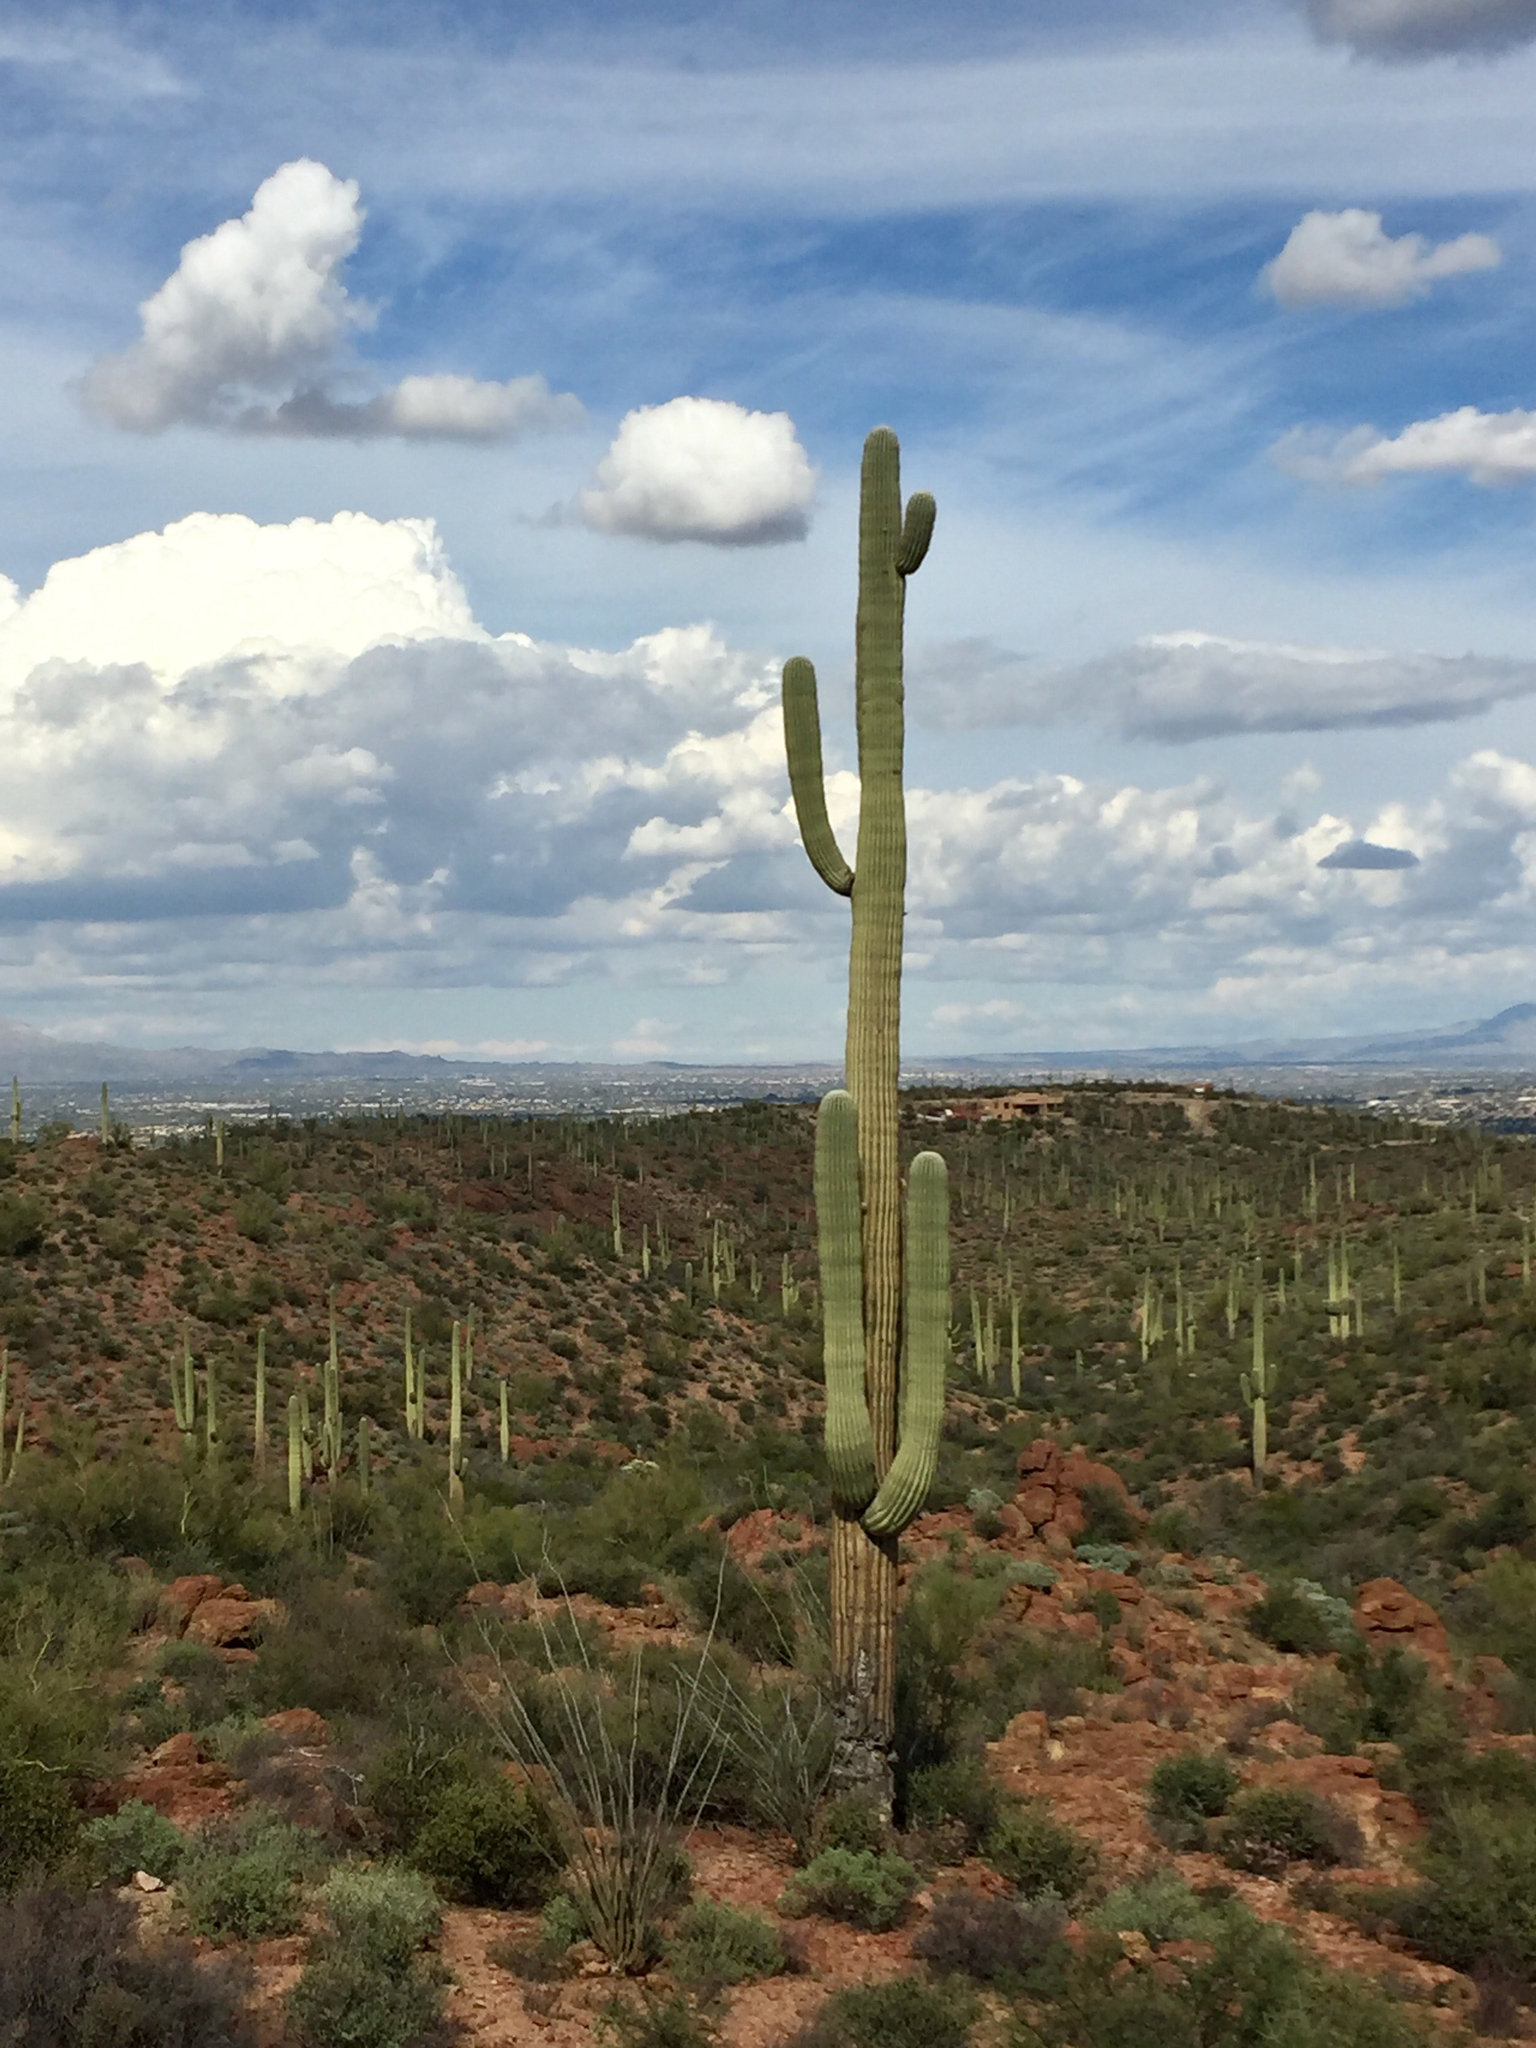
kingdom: Plantae
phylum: Tracheophyta
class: Magnoliopsida
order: Caryophyllales
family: Cactaceae
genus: Carnegiea
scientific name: Carnegiea gigantea
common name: Saguaro
